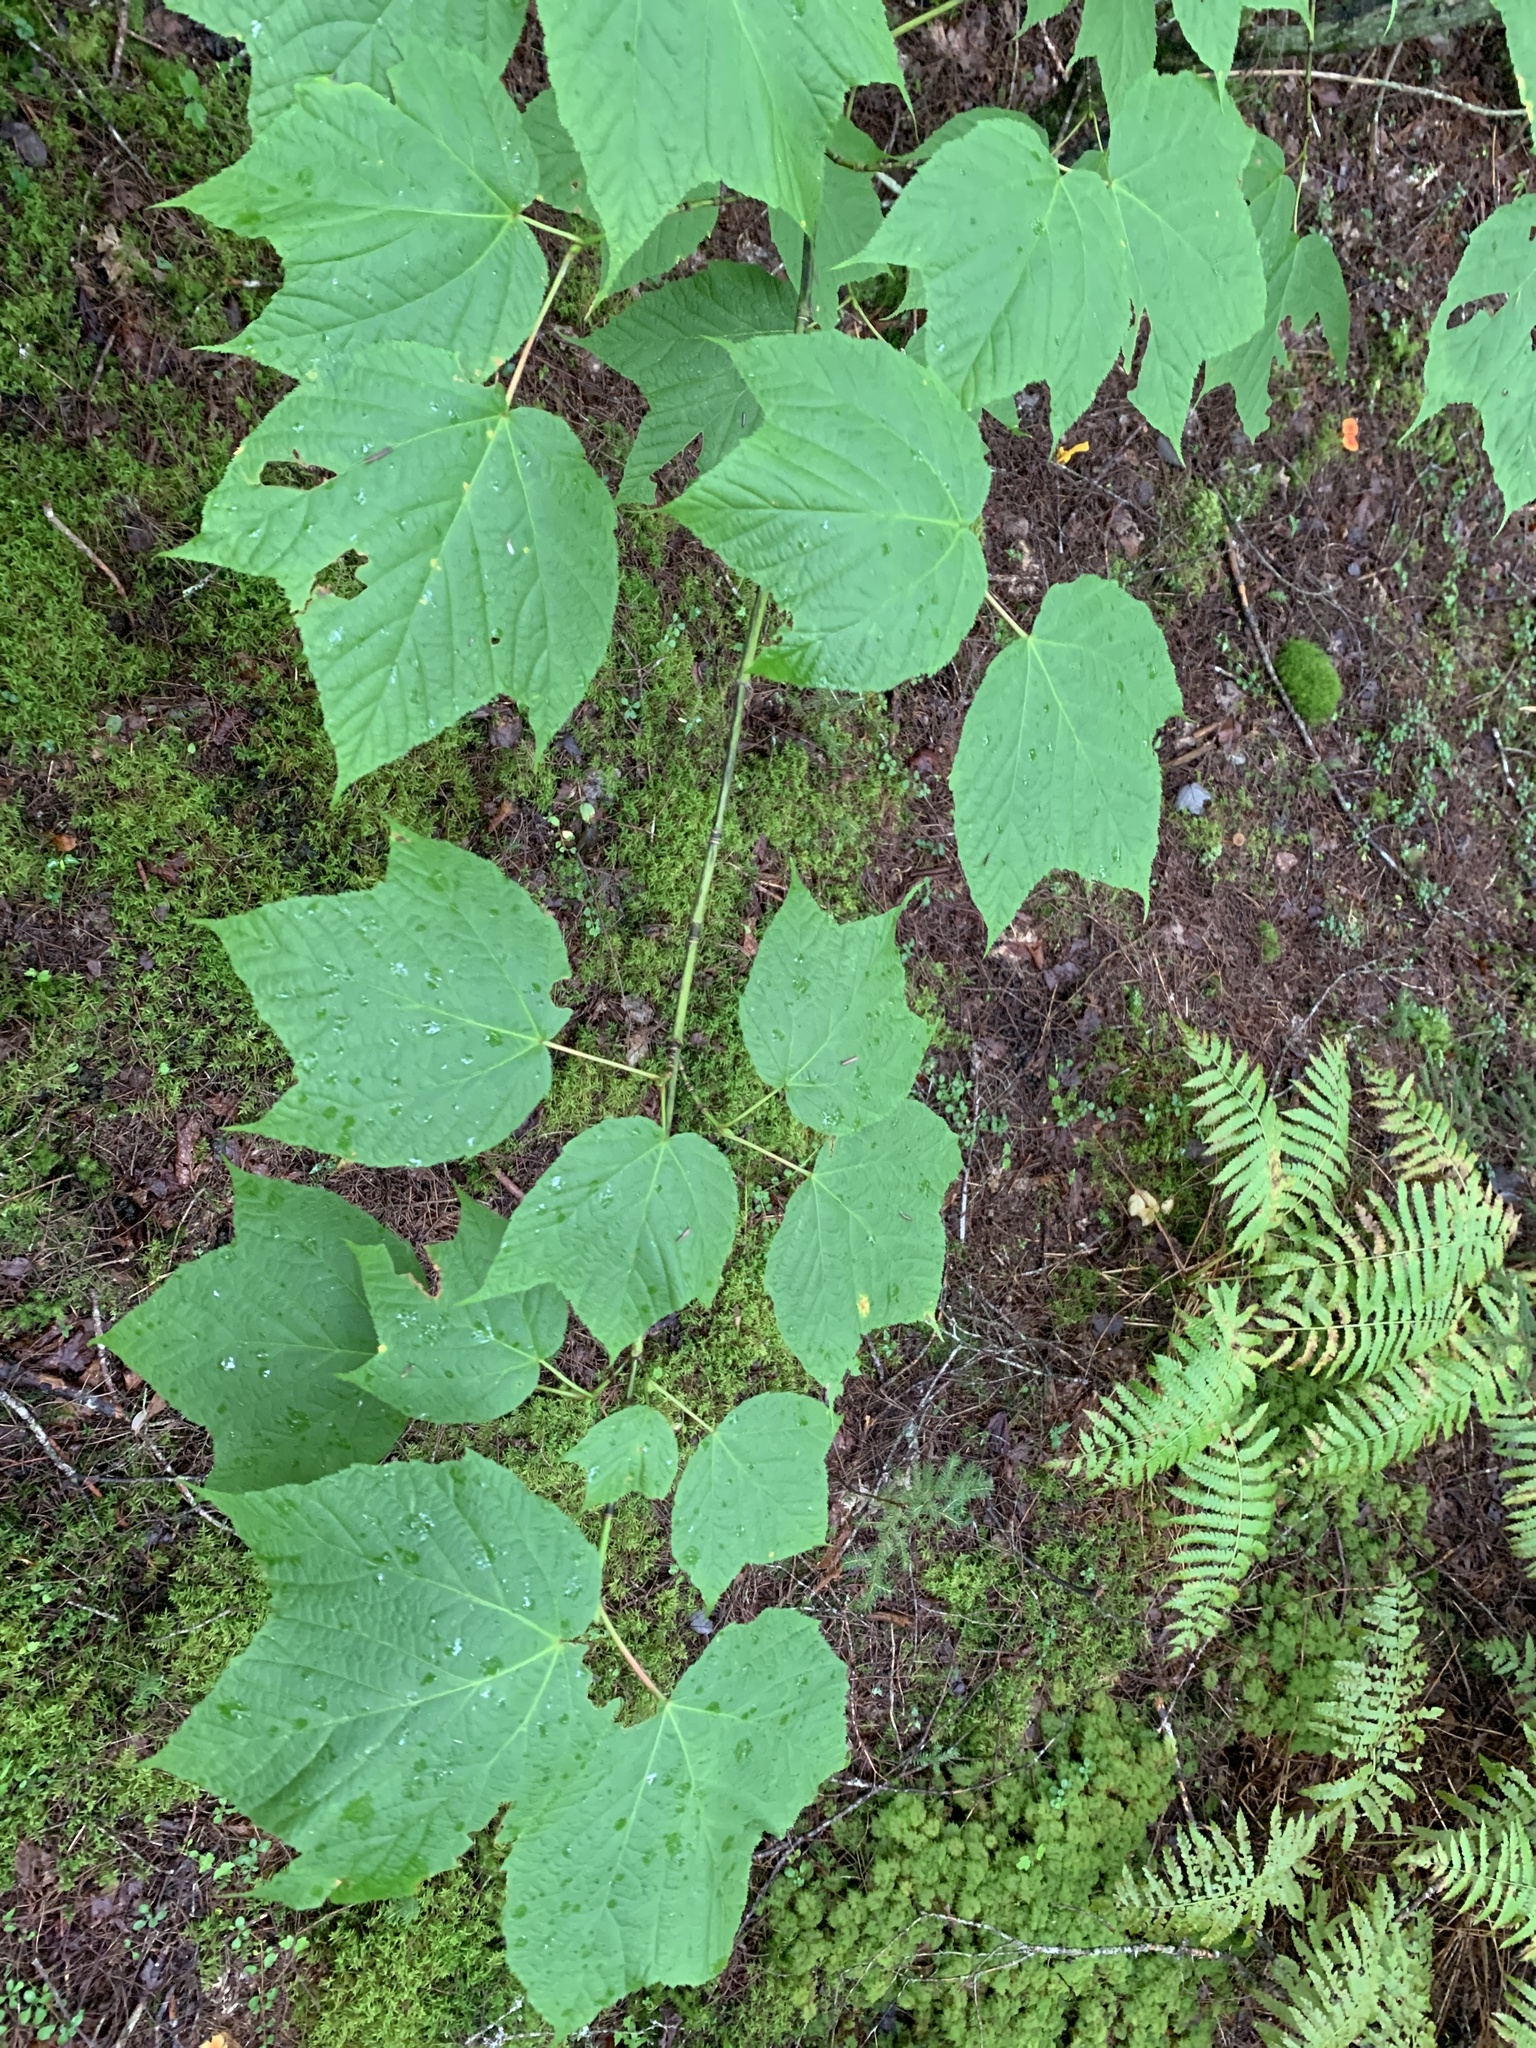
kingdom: Plantae
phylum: Tracheophyta
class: Magnoliopsida
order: Sapindales
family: Sapindaceae
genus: Acer
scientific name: Acer pensylvanicum
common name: Moosewood
